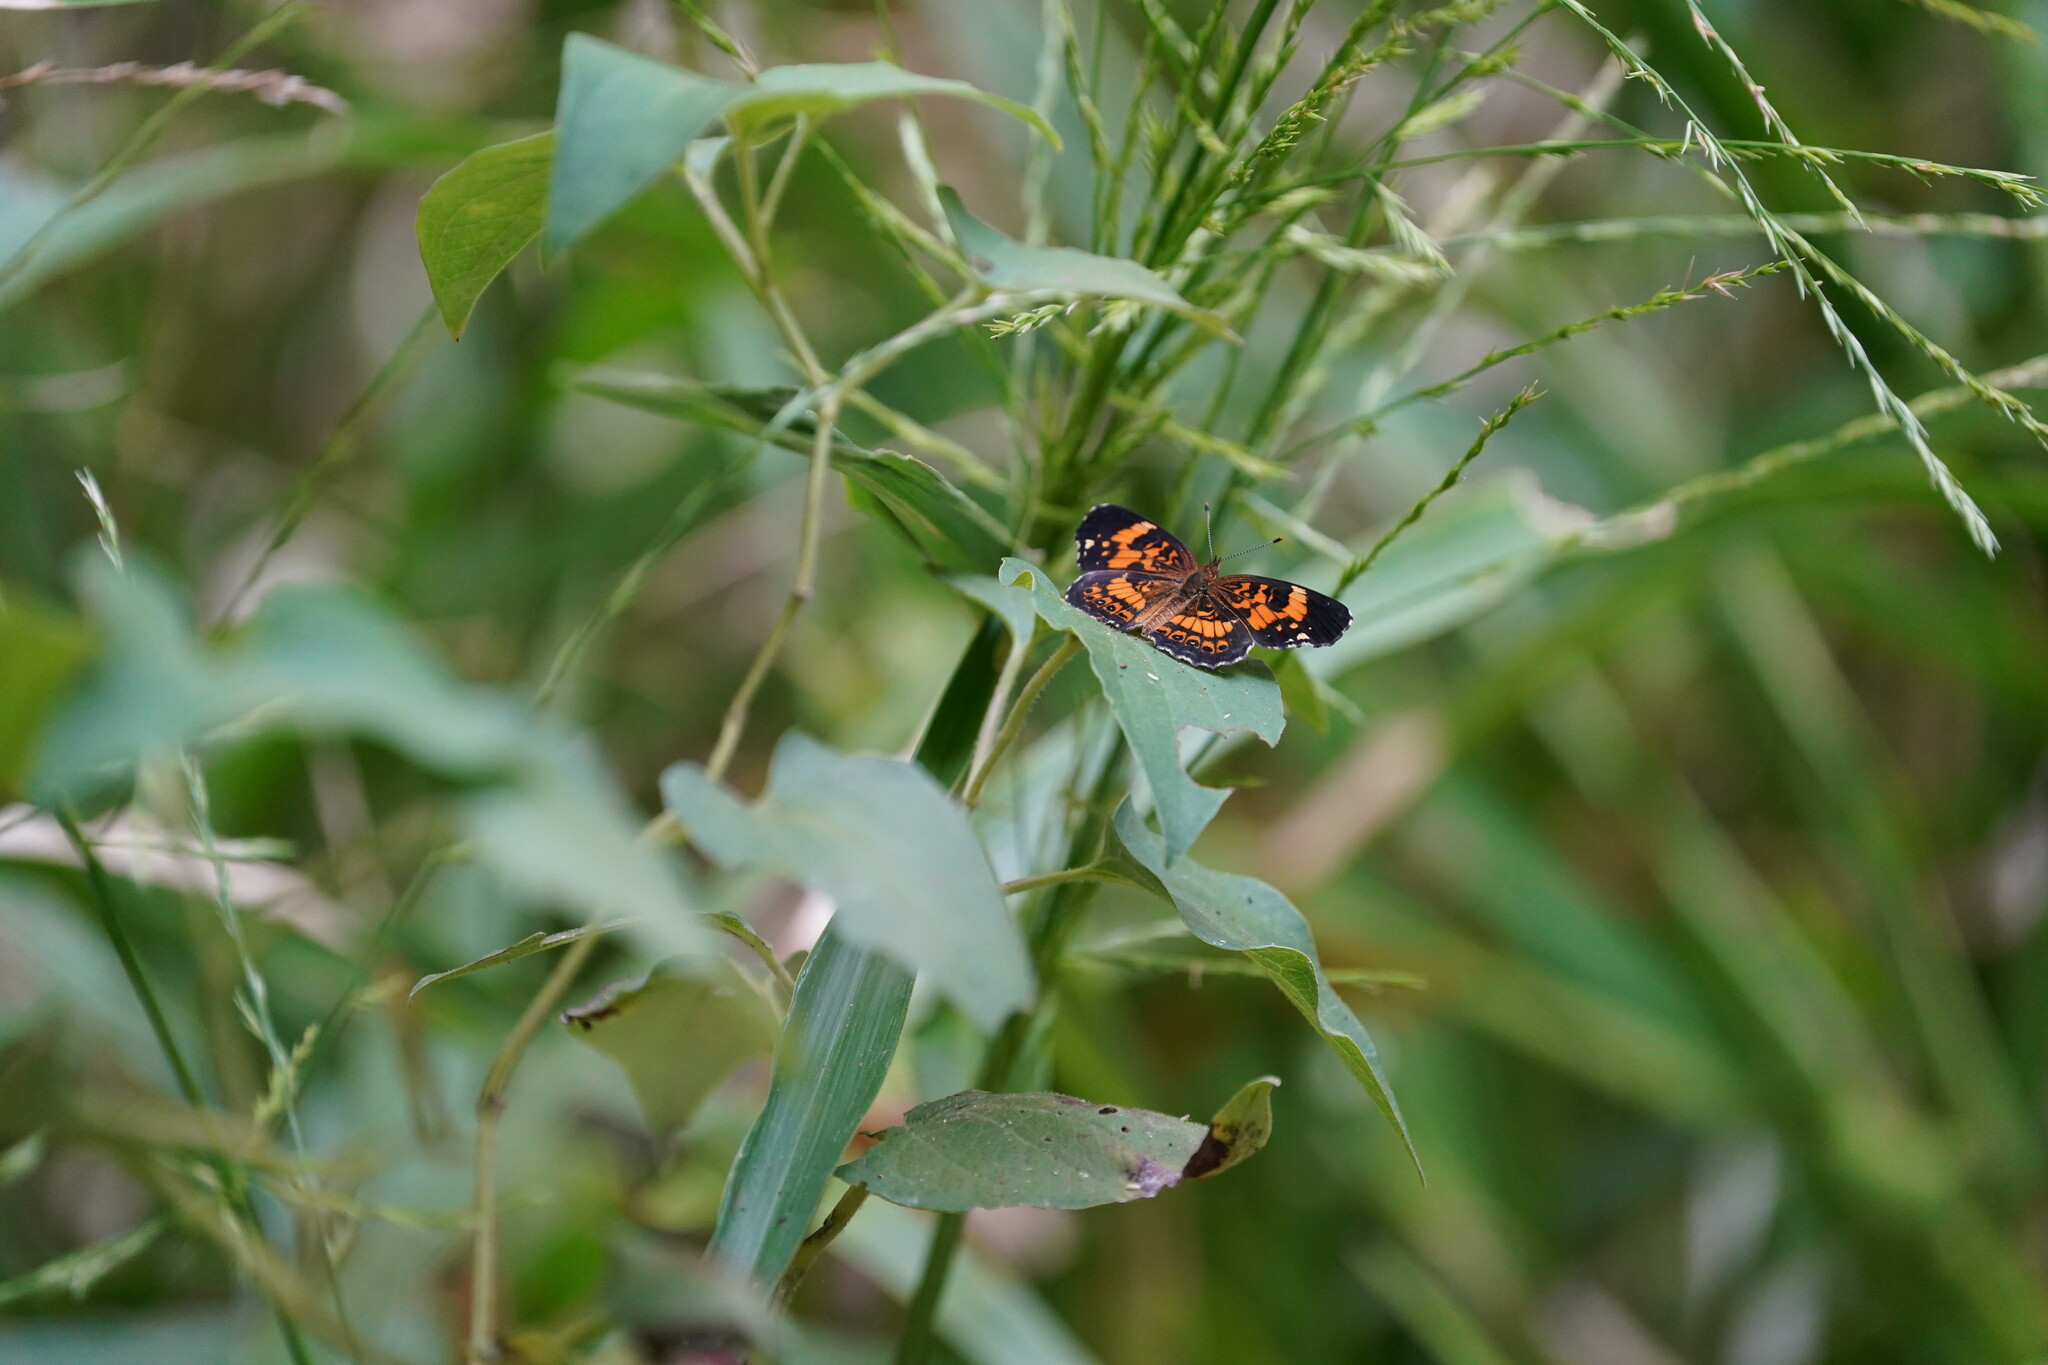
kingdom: Animalia
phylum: Arthropoda
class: Insecta
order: Lepidoptera
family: Nymphalidae
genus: Chlosyne
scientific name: Chlosyne nycteis
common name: Silvery checkerspot
